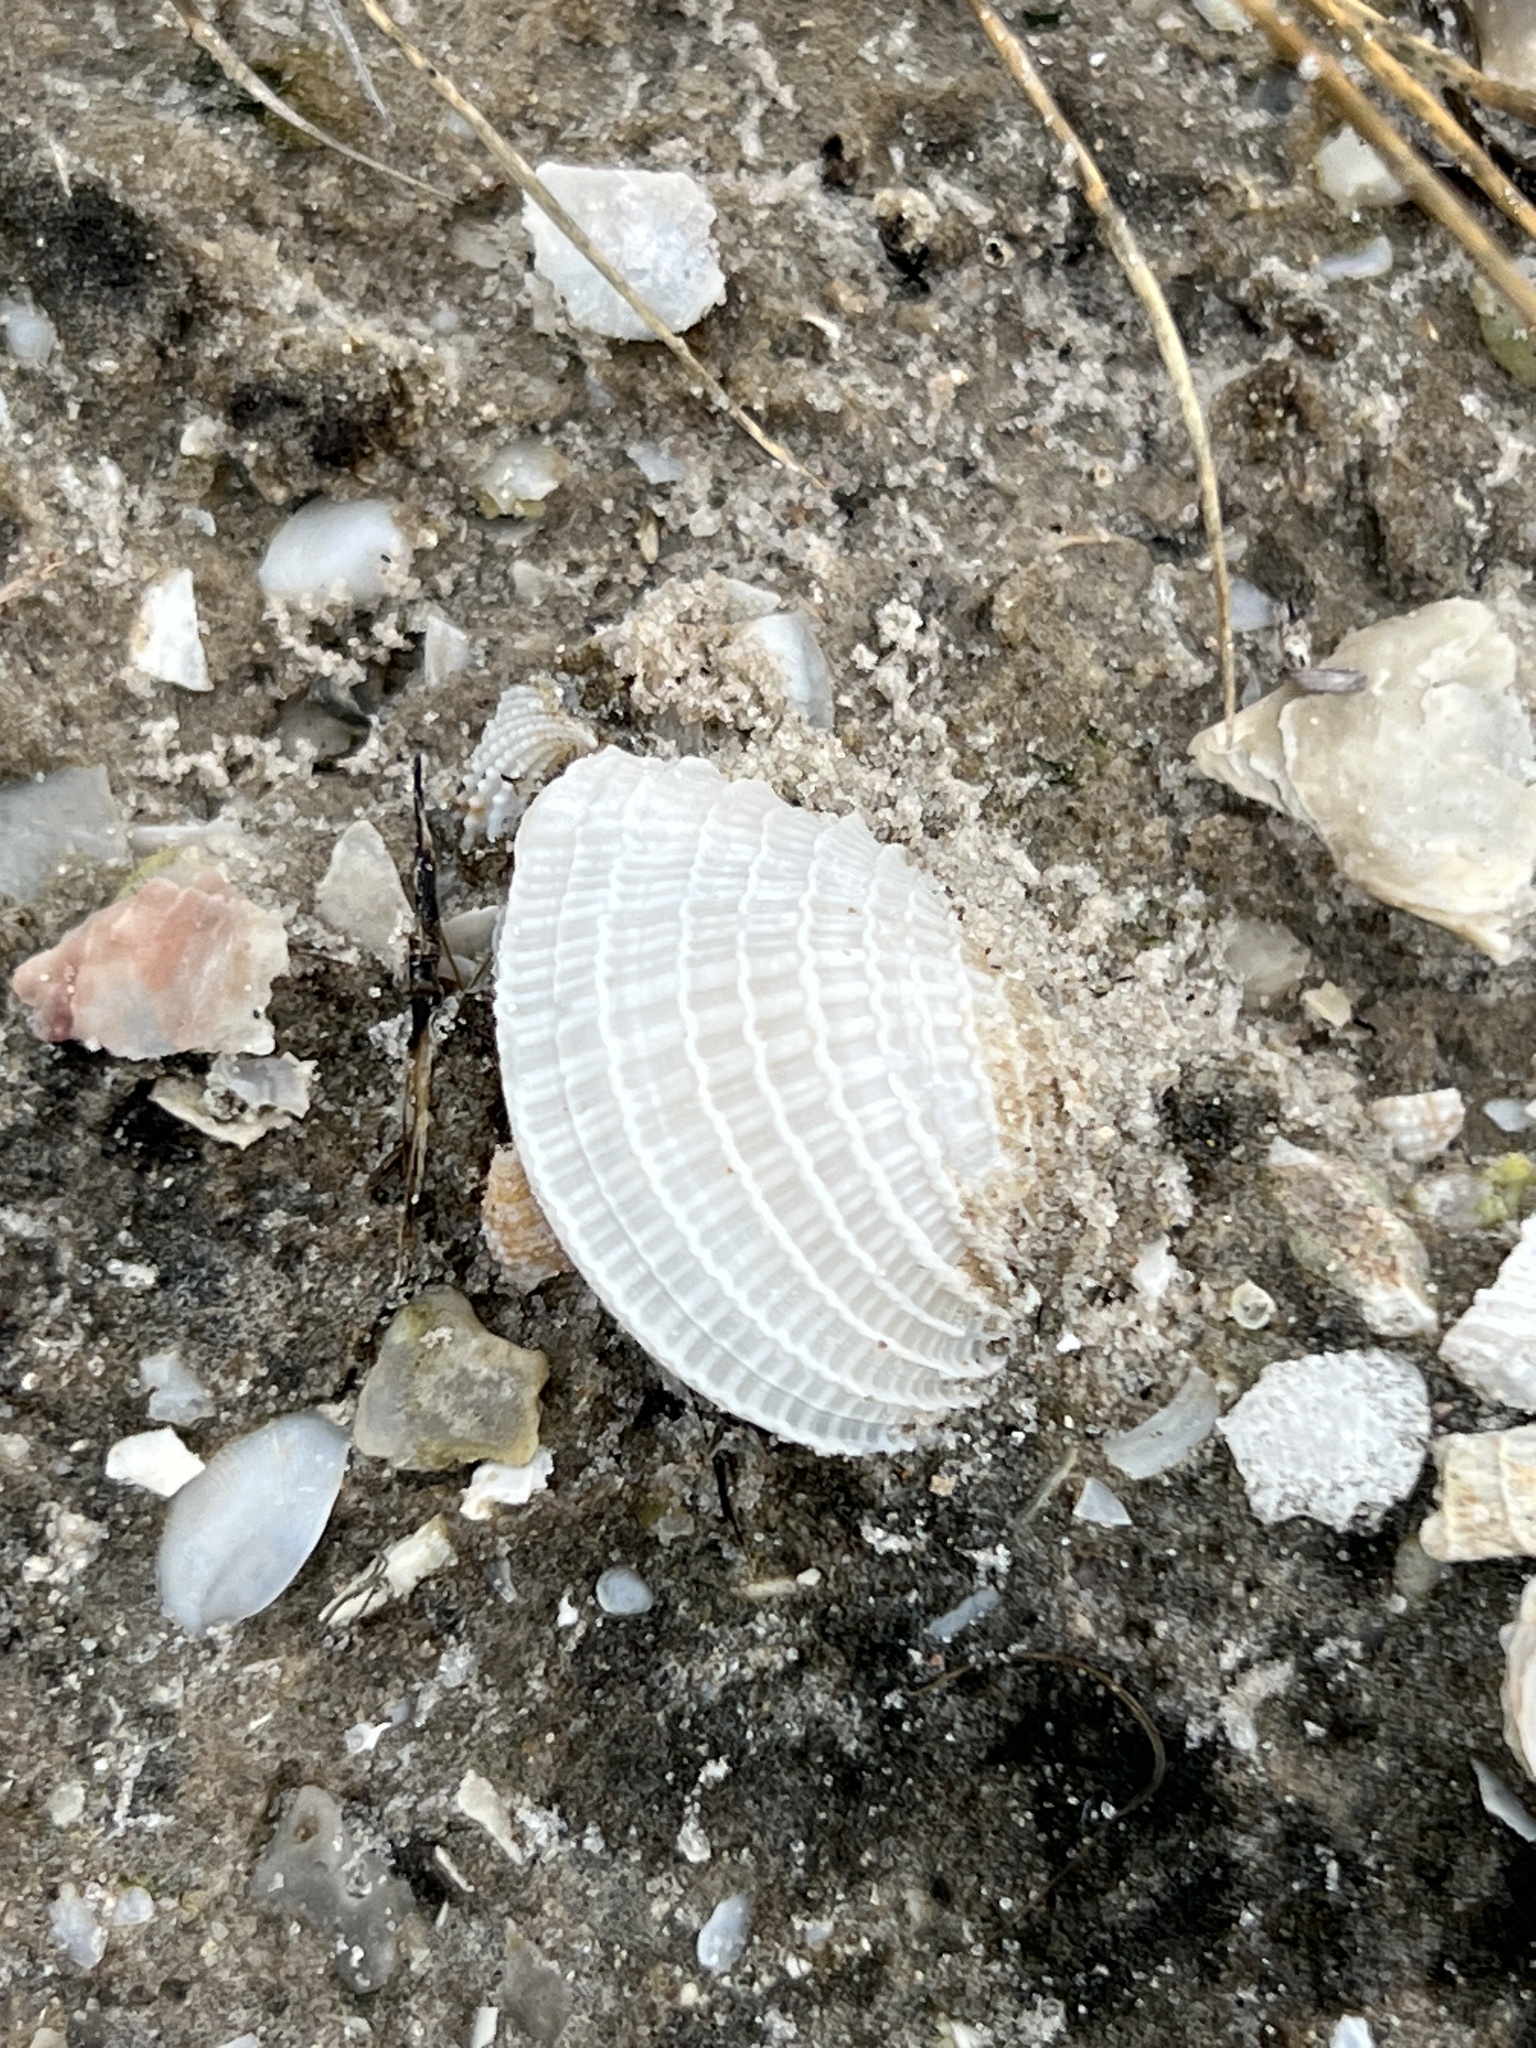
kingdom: Animalia
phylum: Mollusca
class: Bivalvia
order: Venerida
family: Veneridae
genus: Chione
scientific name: Chione elevata
